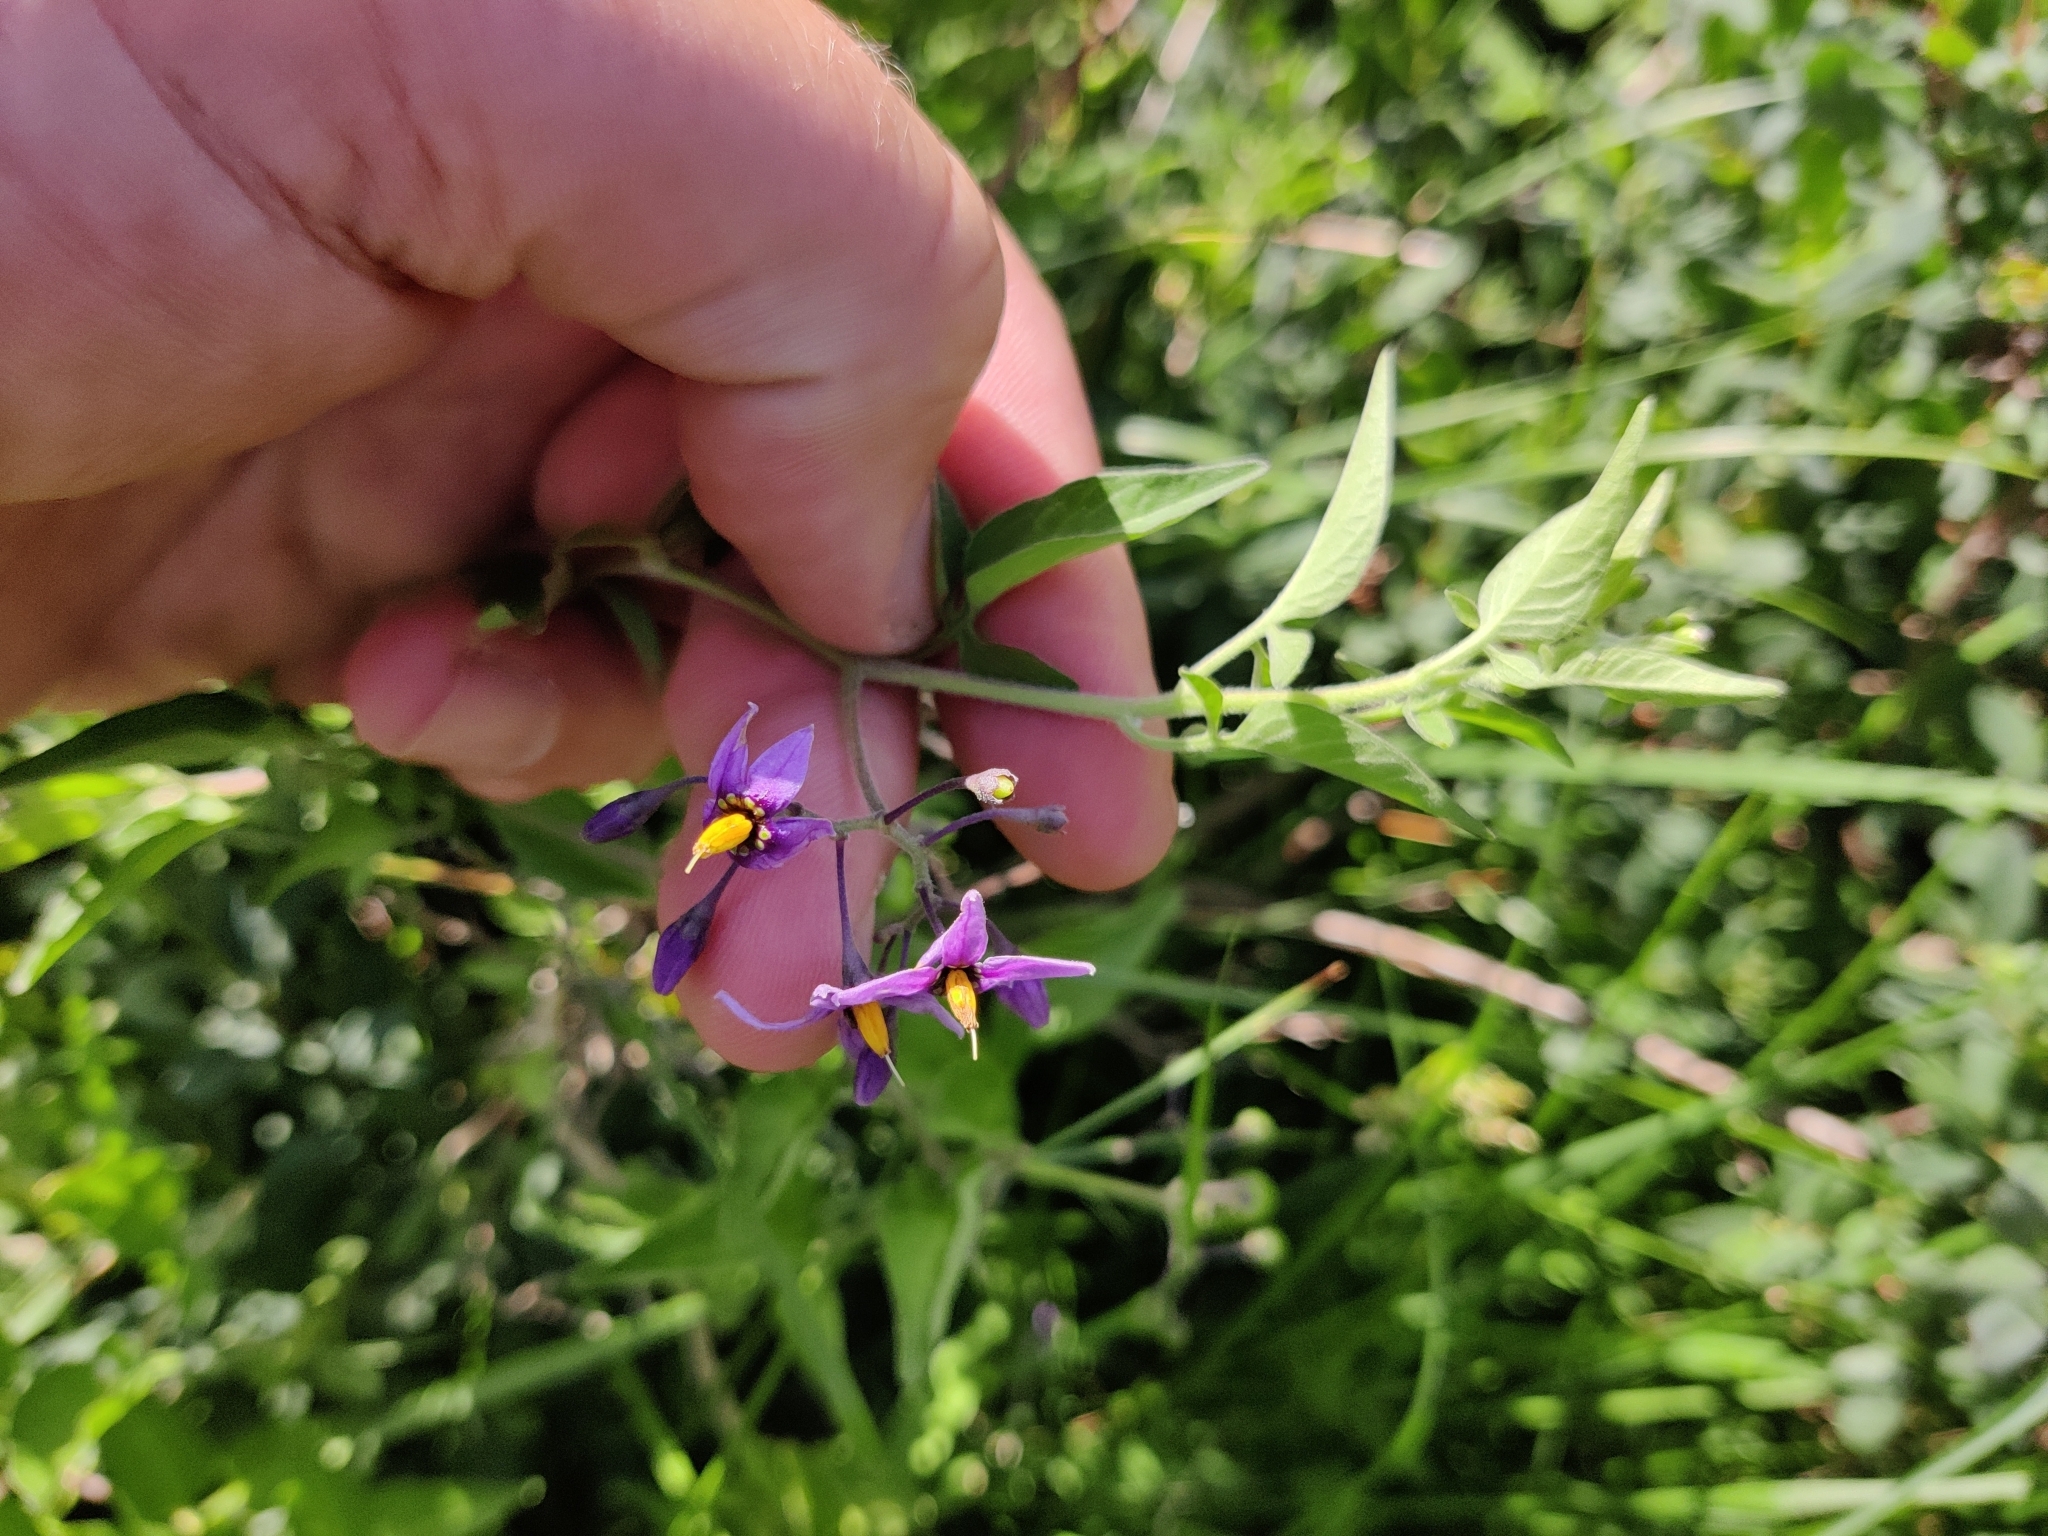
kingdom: Plantae
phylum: Tracheophyta
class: Magnoliopsida
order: Solanales
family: Solanaceae
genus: Solanum
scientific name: Solanum dulcamara
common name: Climbing nightshade
